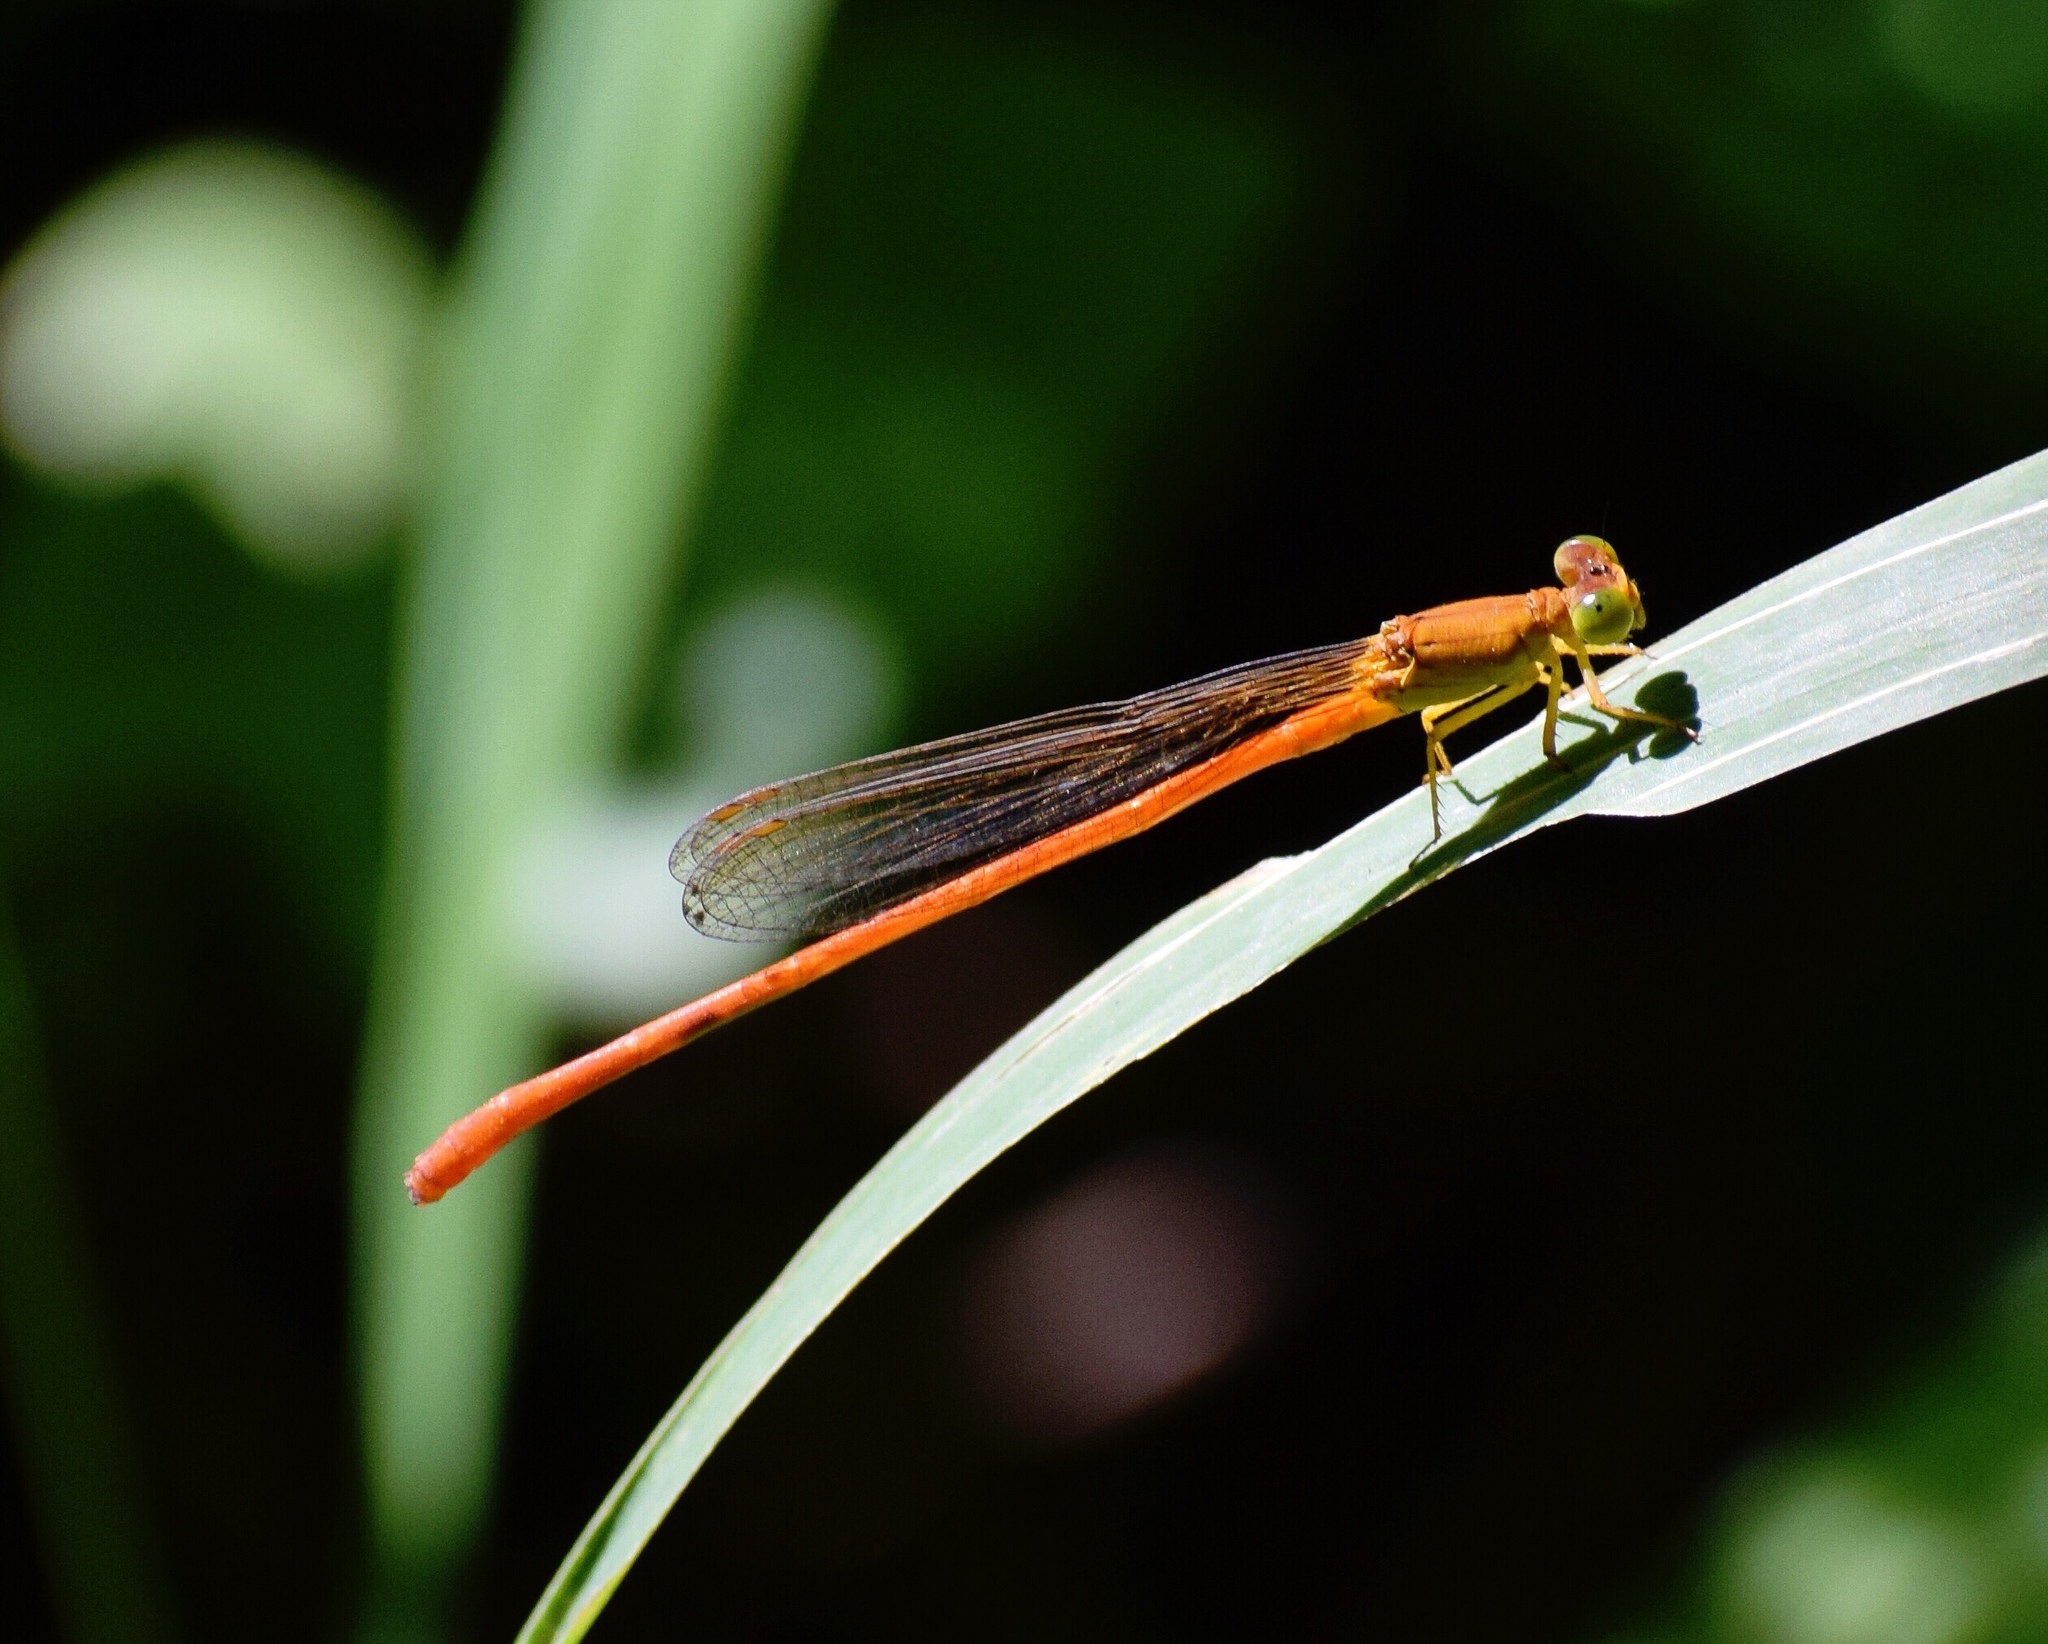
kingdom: Animalia
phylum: Arthropoda
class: Insecta
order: Odonata
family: Coenagrionidae
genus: Ceriagrion
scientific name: Ceriagrion glabrum
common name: Common pond damsel
